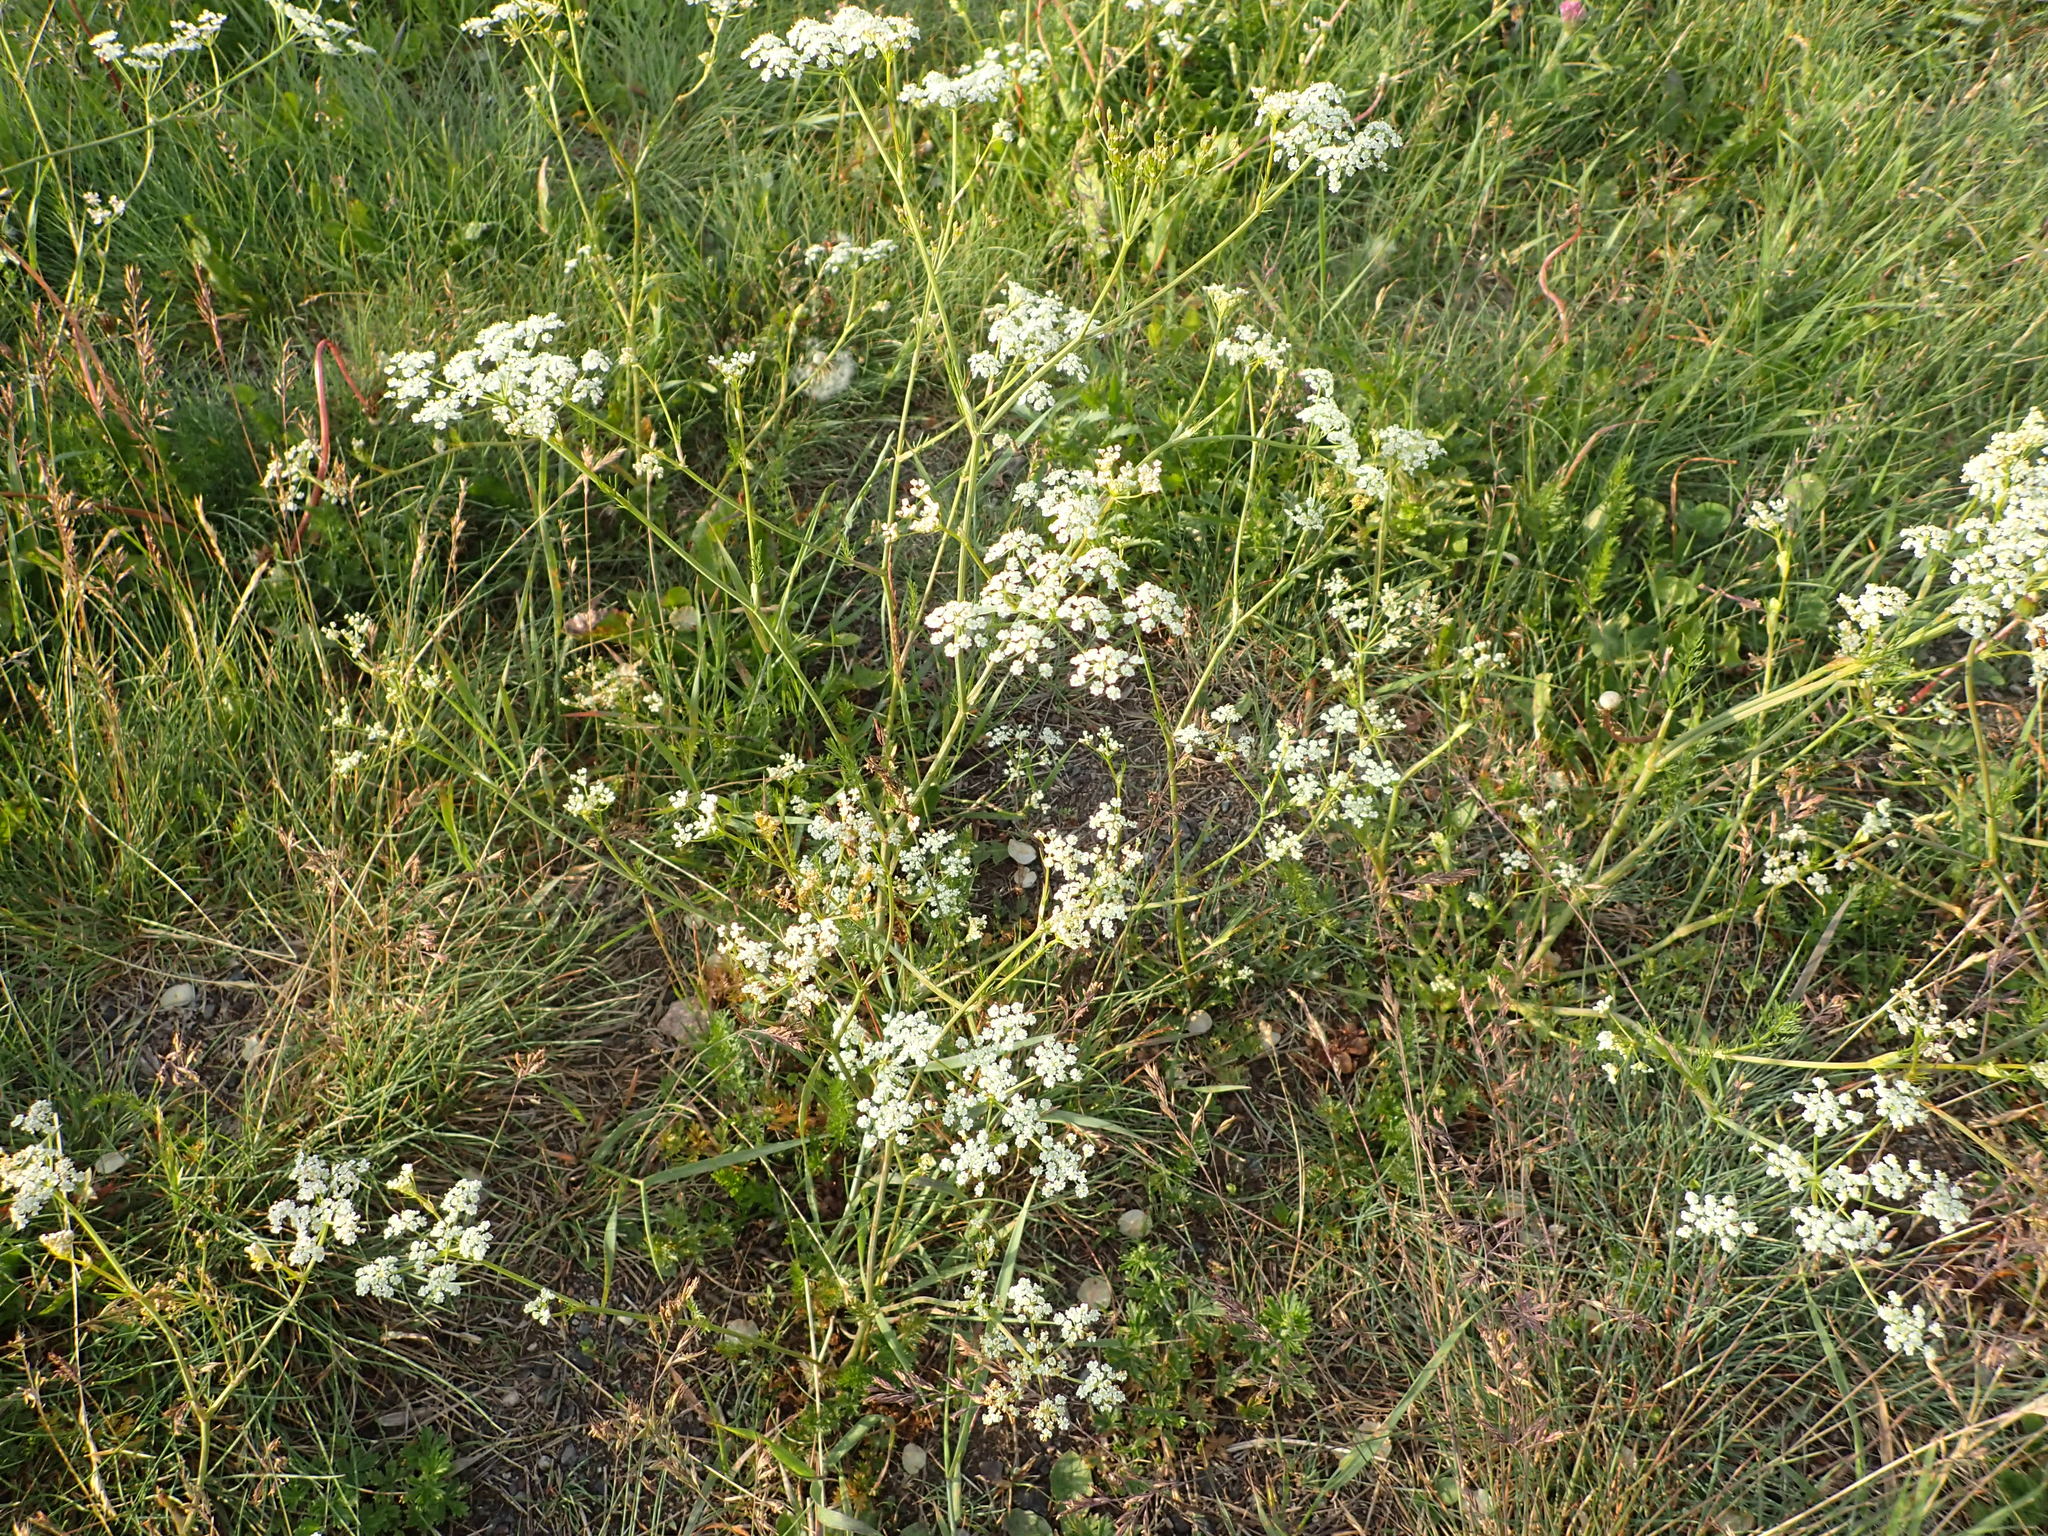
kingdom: Plantae
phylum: Tracheophyta
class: Magnoliopsida
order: Apiales
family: Apiaceae
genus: Daucus
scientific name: Daucus carota
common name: Wild carrot
